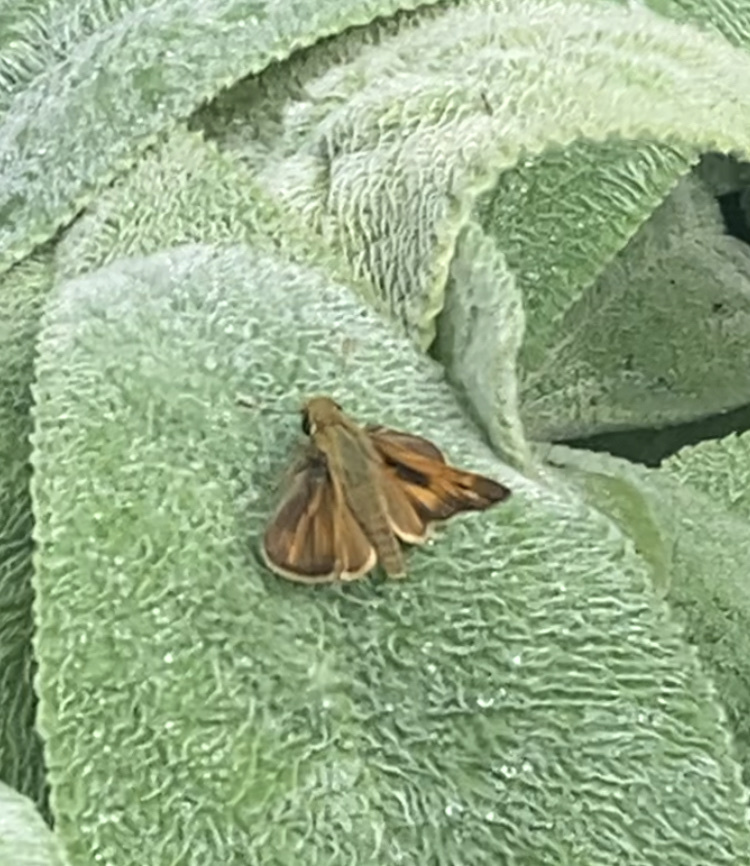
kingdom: Animalia
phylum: Arthropoda
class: Insecta
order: Lepidoptera
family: Hesperiidae
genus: Atalopedes
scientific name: Atalopedes
